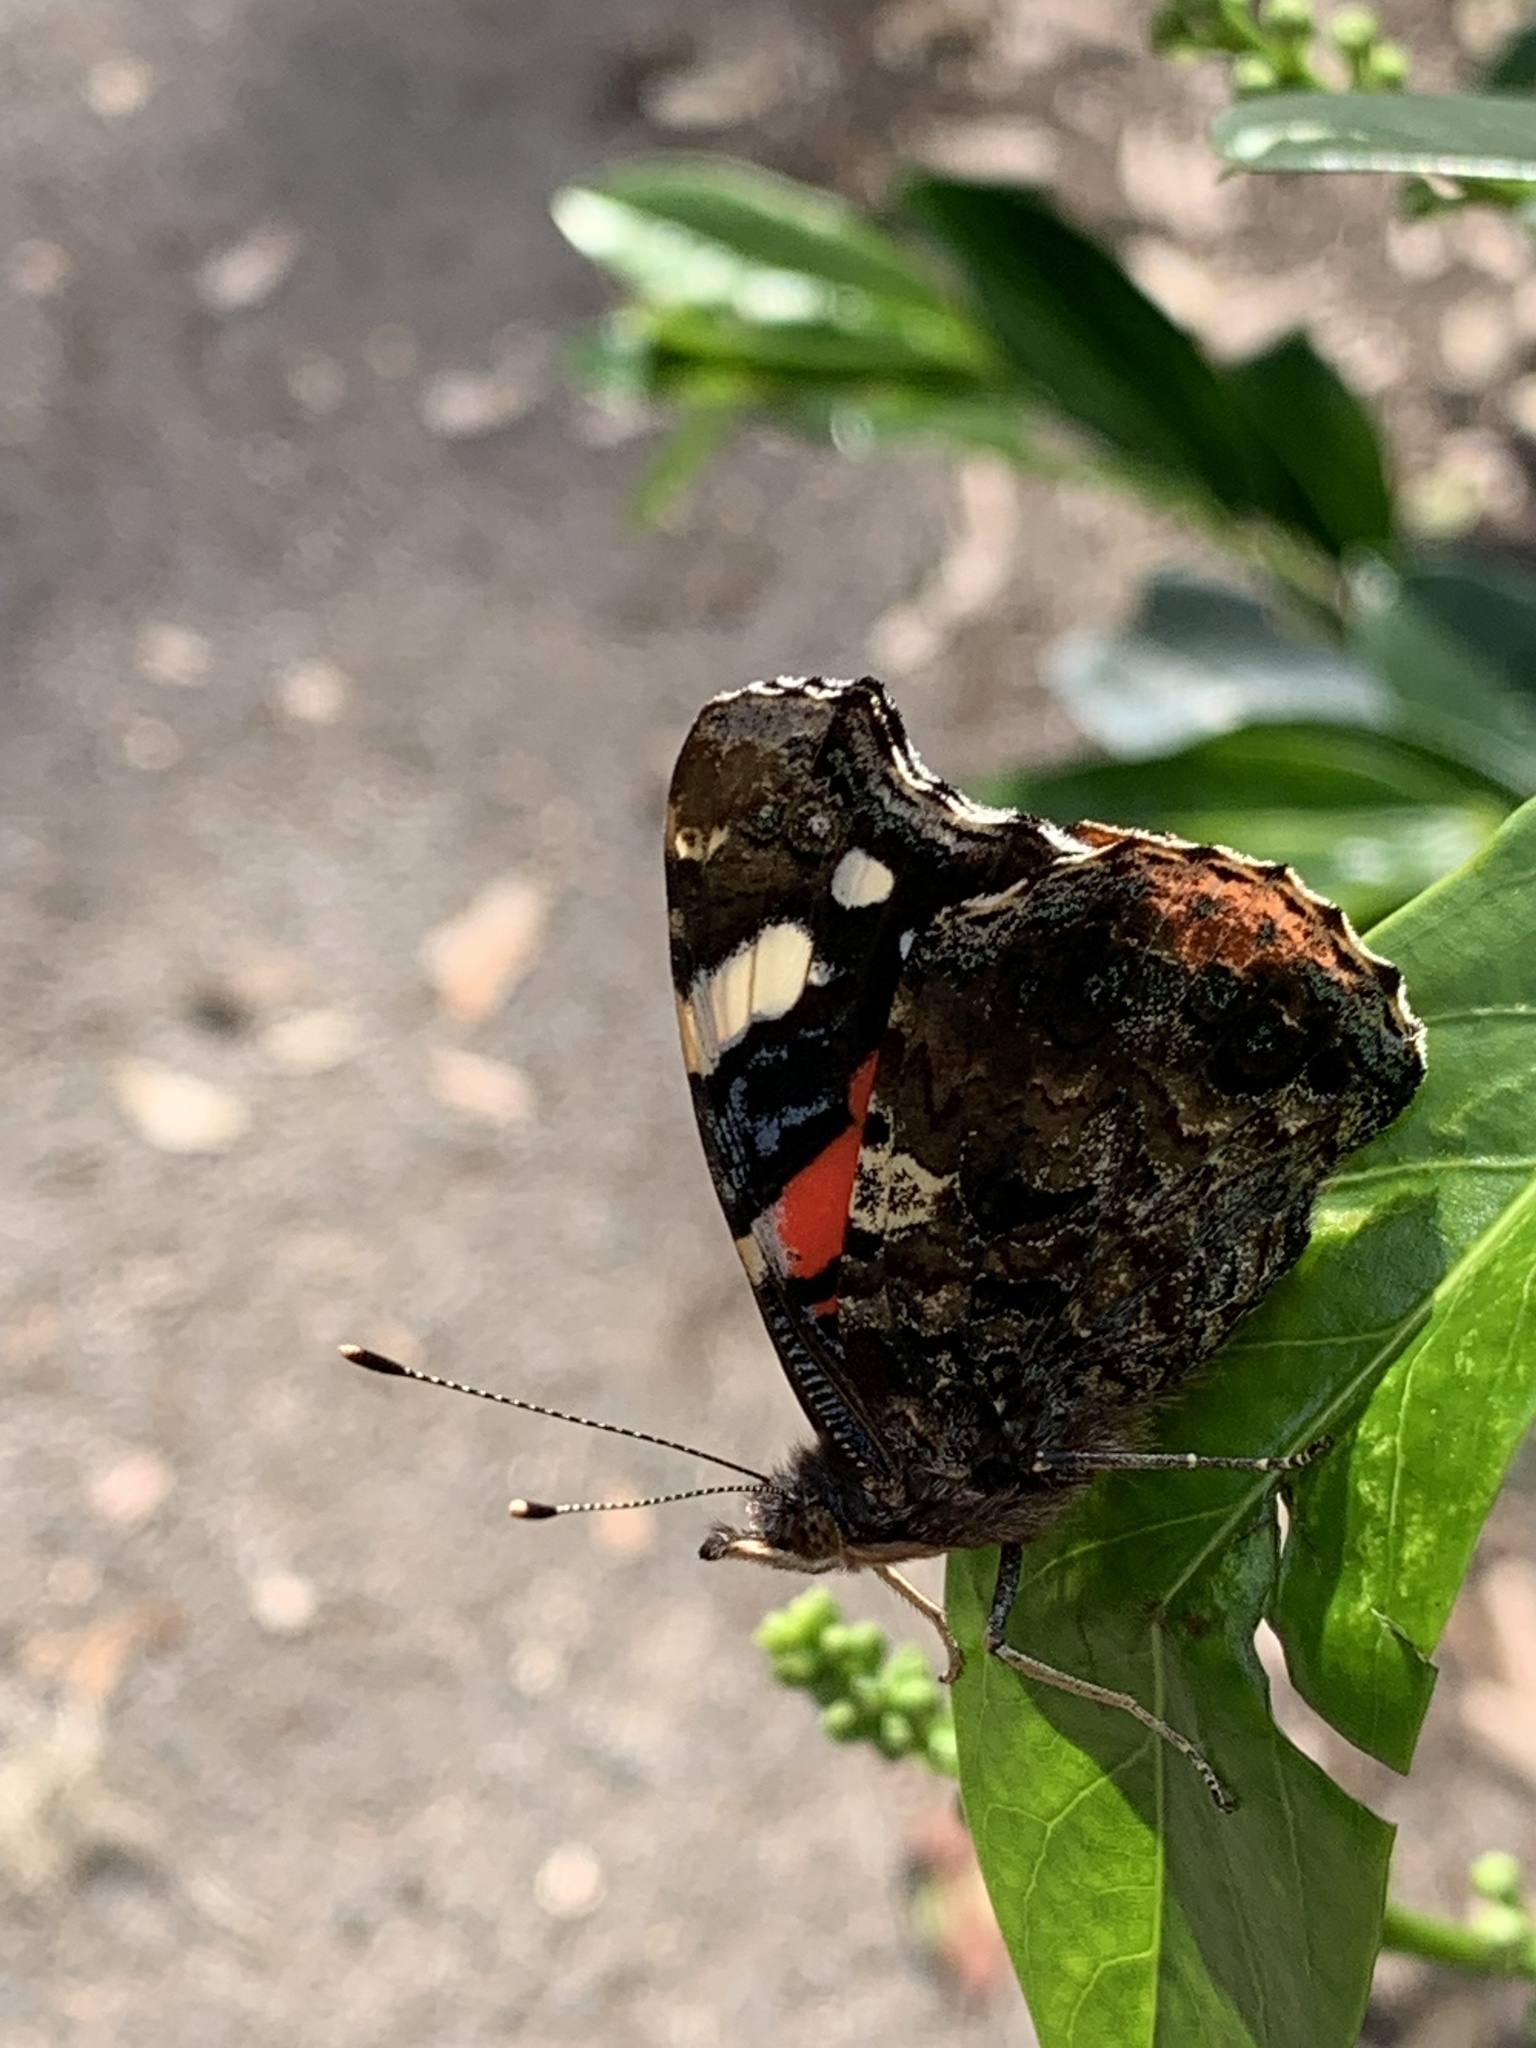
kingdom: Animalia
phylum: Arthropoda
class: Insecta
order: Lepidoptera
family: Nymphalidae
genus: Vanessa
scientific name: Vanessa atalanta
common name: Red admiral
